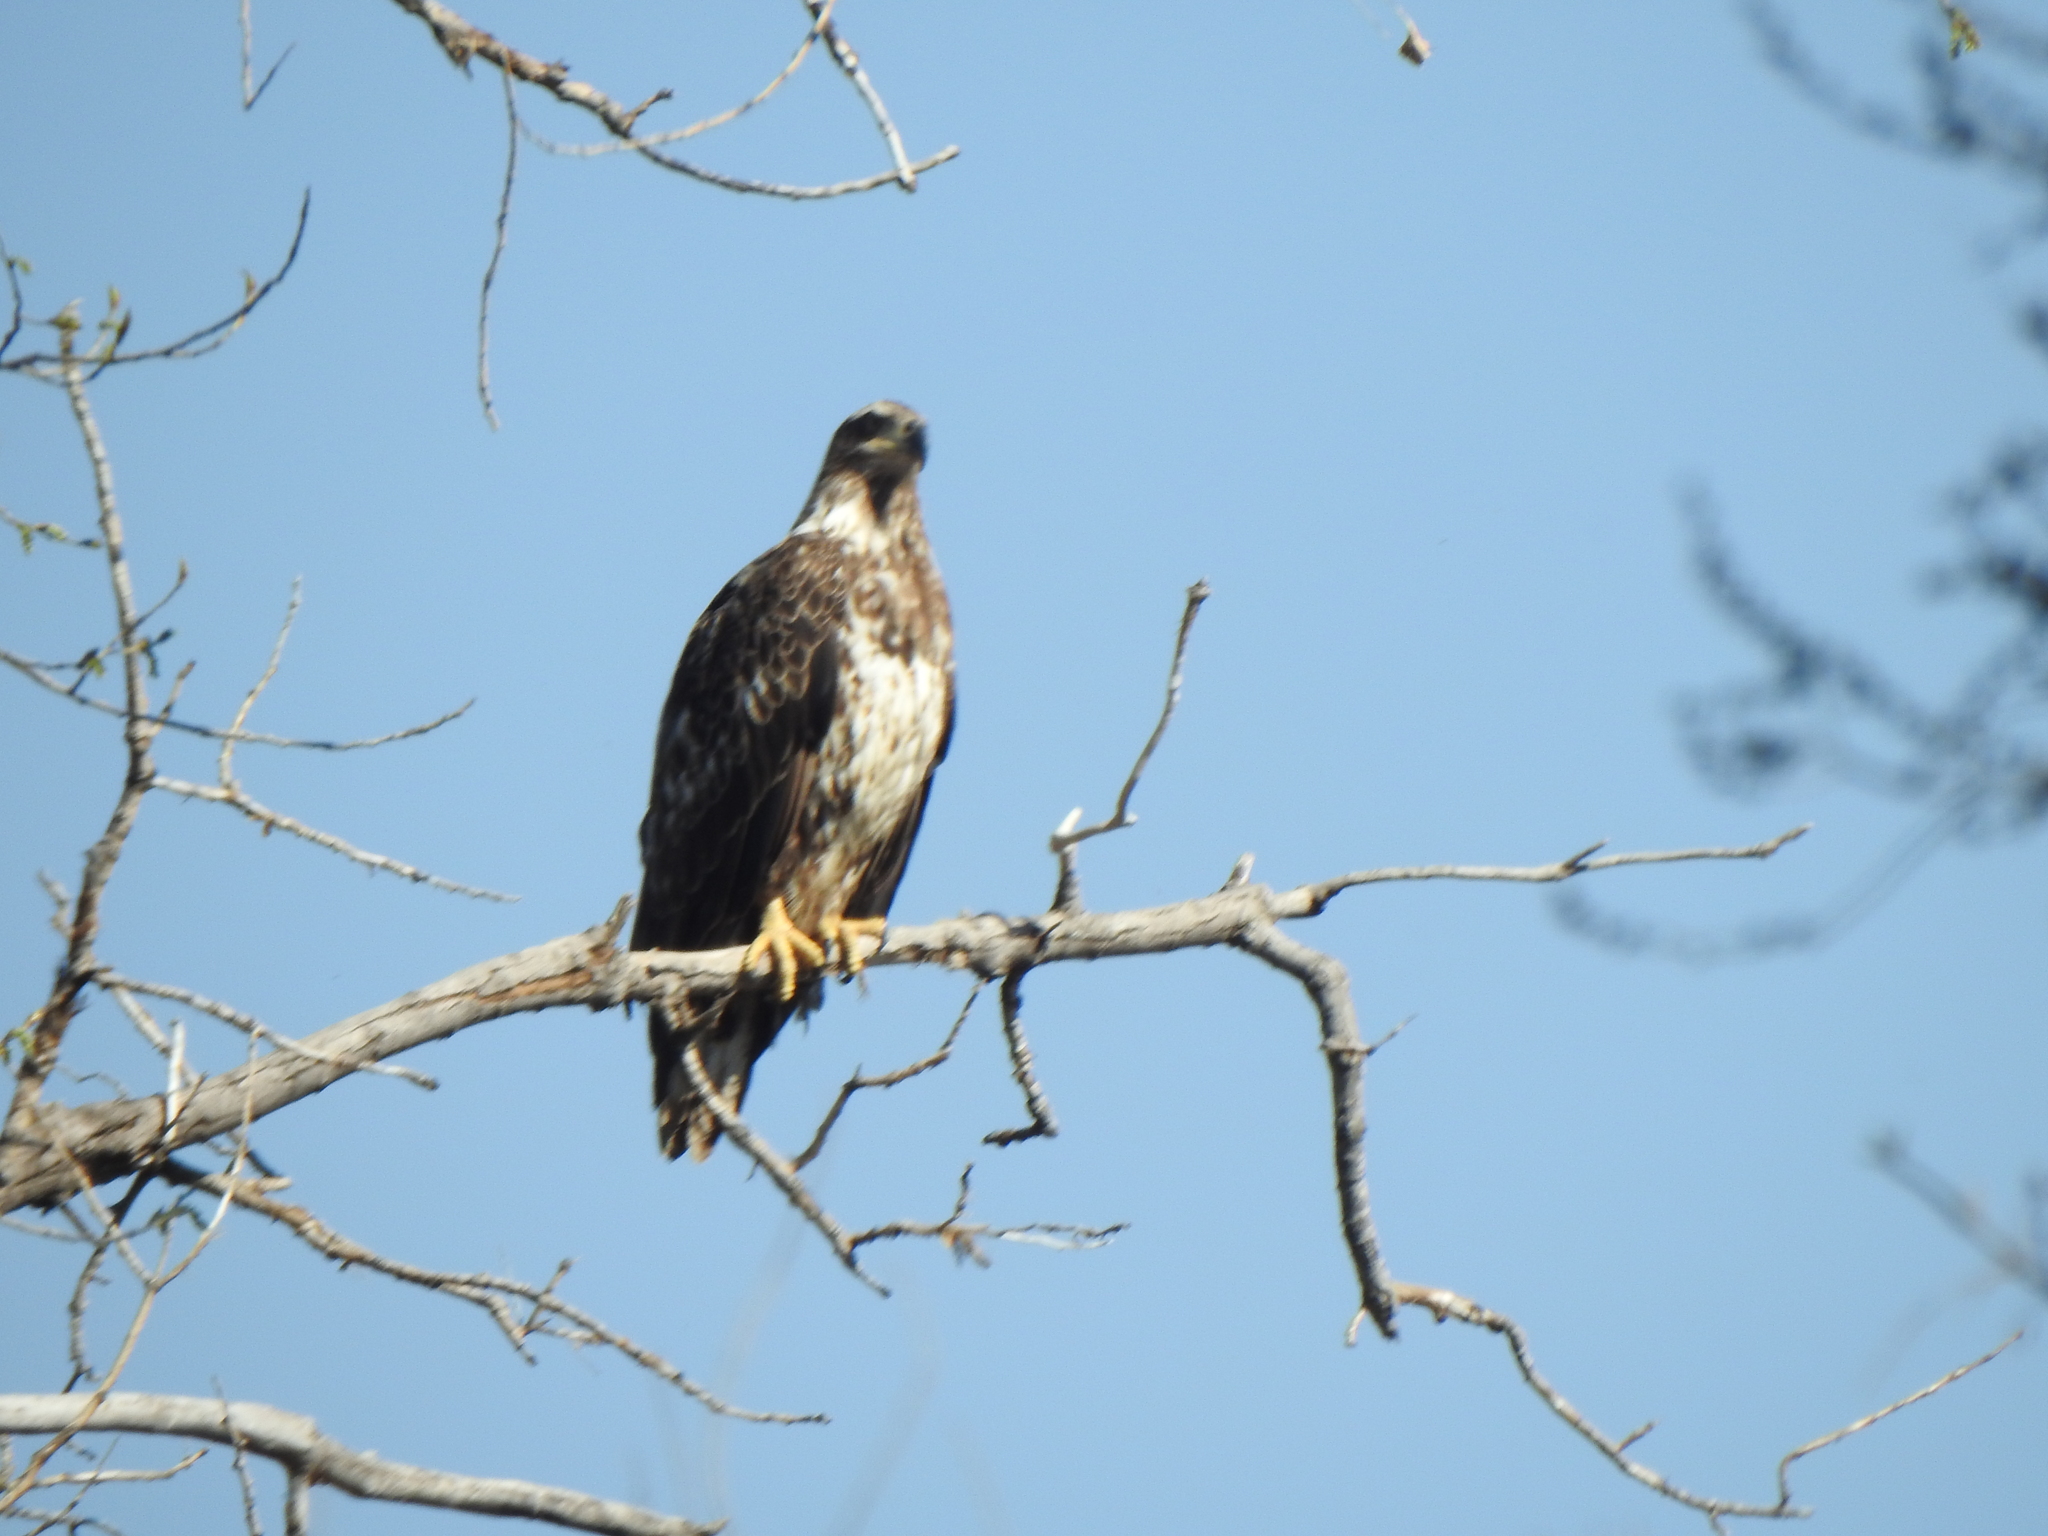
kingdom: Animalia
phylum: Chordata
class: Aves
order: Accipitriformes
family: Accipitridae
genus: Haliaeetus
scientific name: Haliaeetus leucocephalus
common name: Bald eagle
